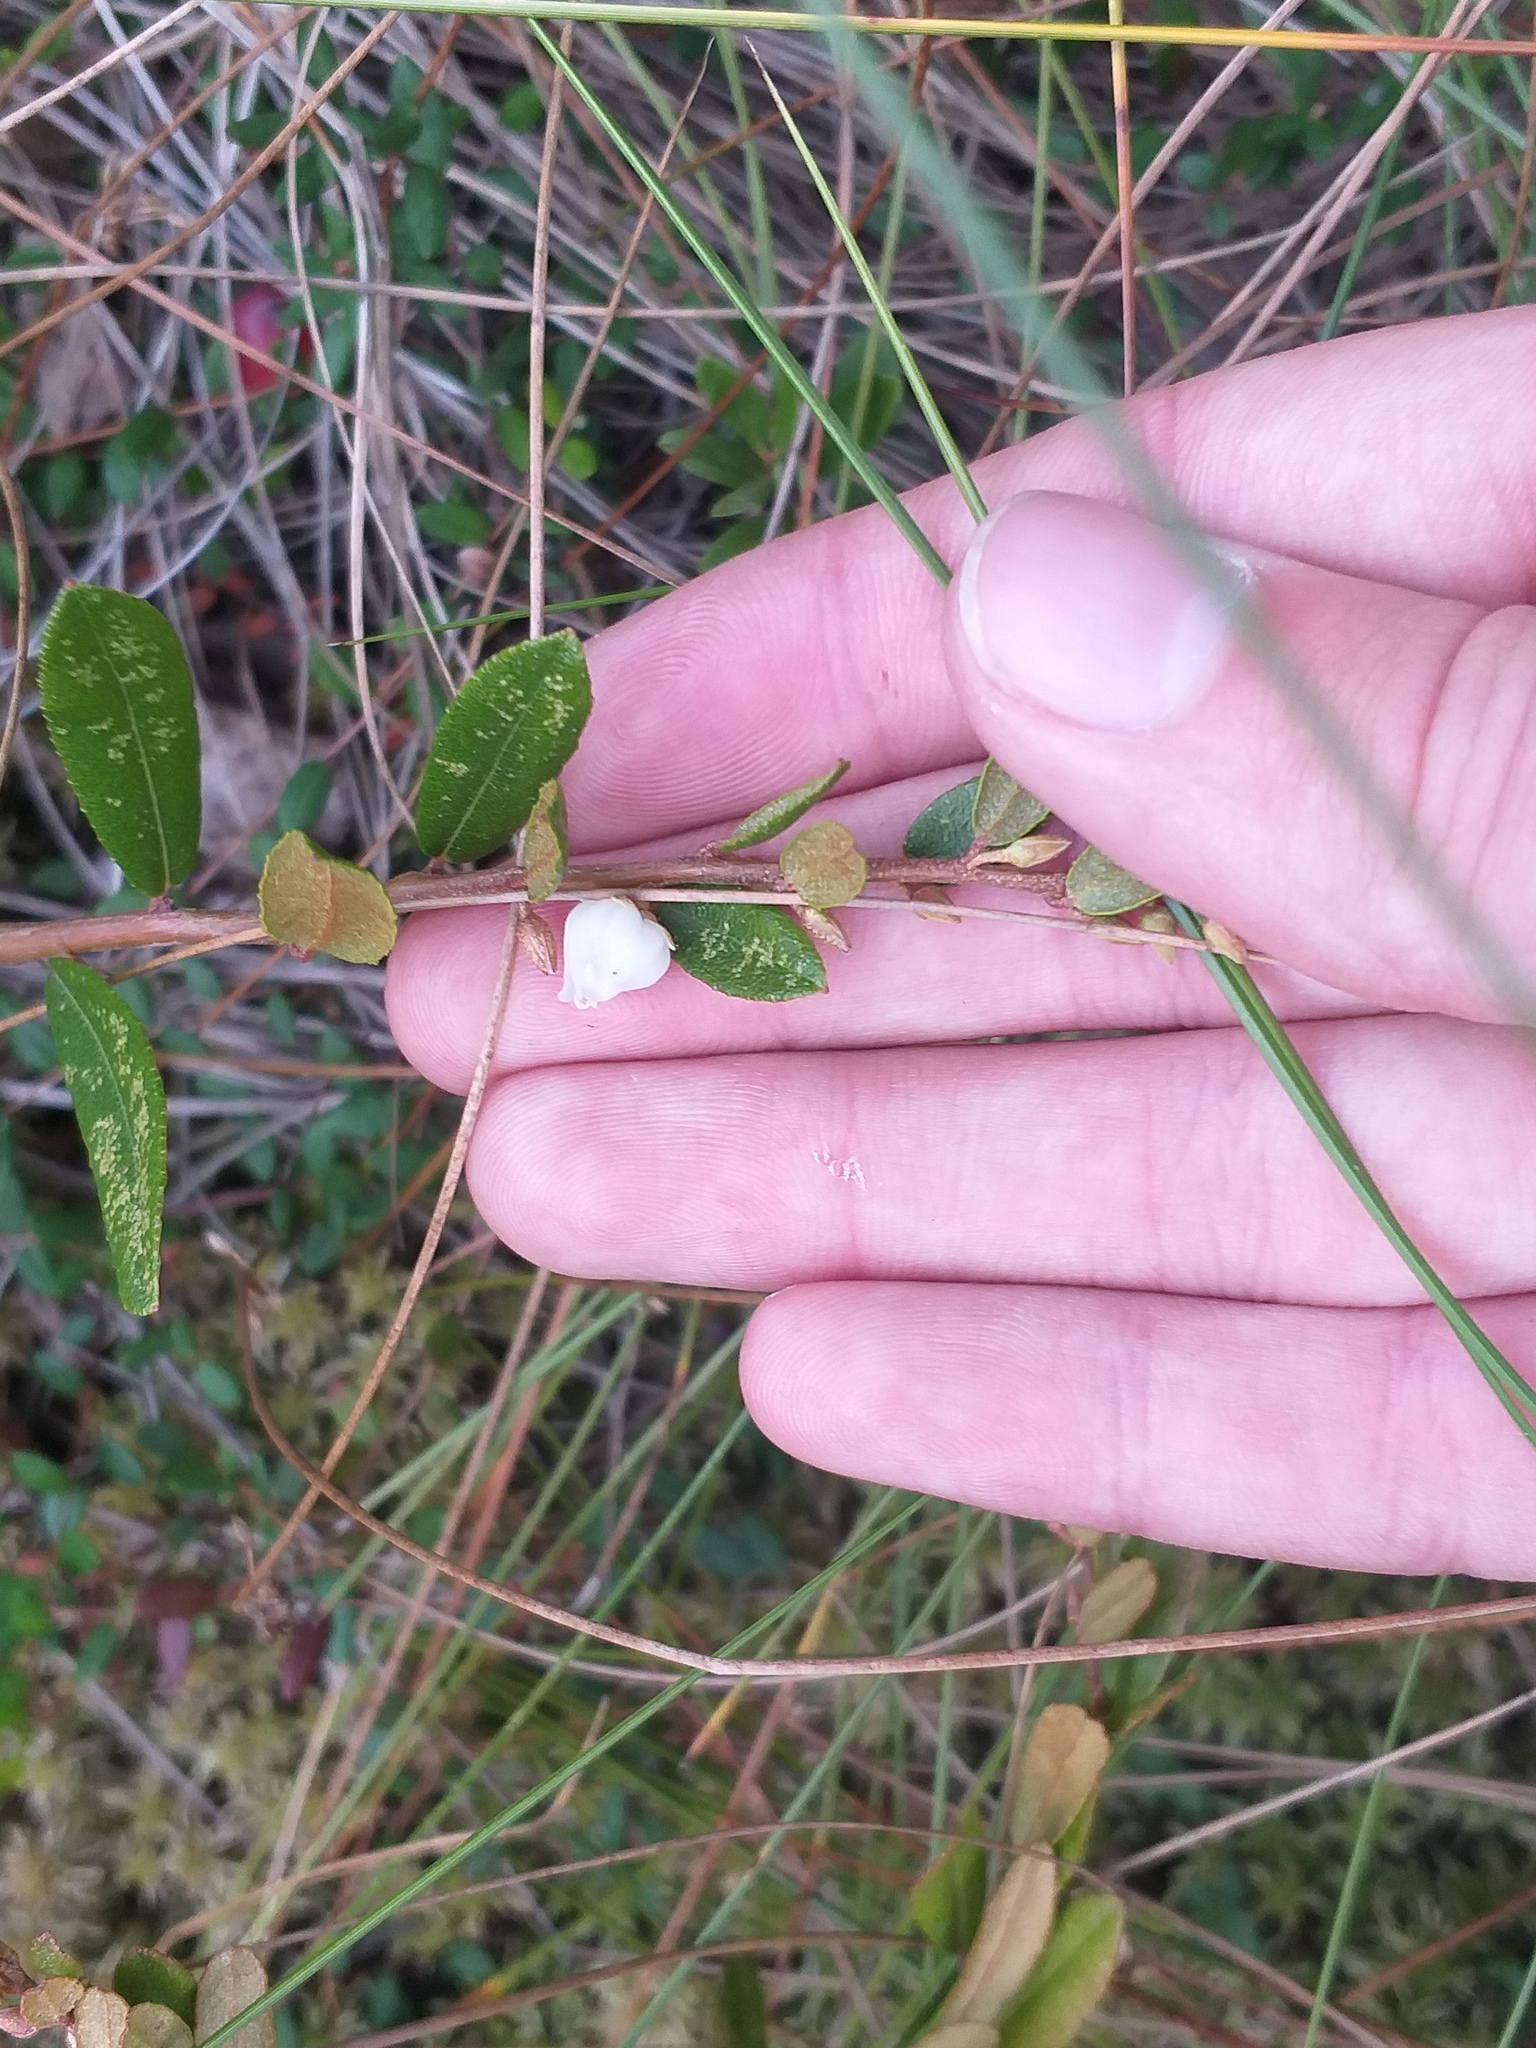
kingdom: Plantae
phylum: Tracheophyta
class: Magnoliopsida
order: Ericales
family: Ericaceae
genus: Chamaedaphne
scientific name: Chamaedaphne calyculata
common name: Leatherleaf
